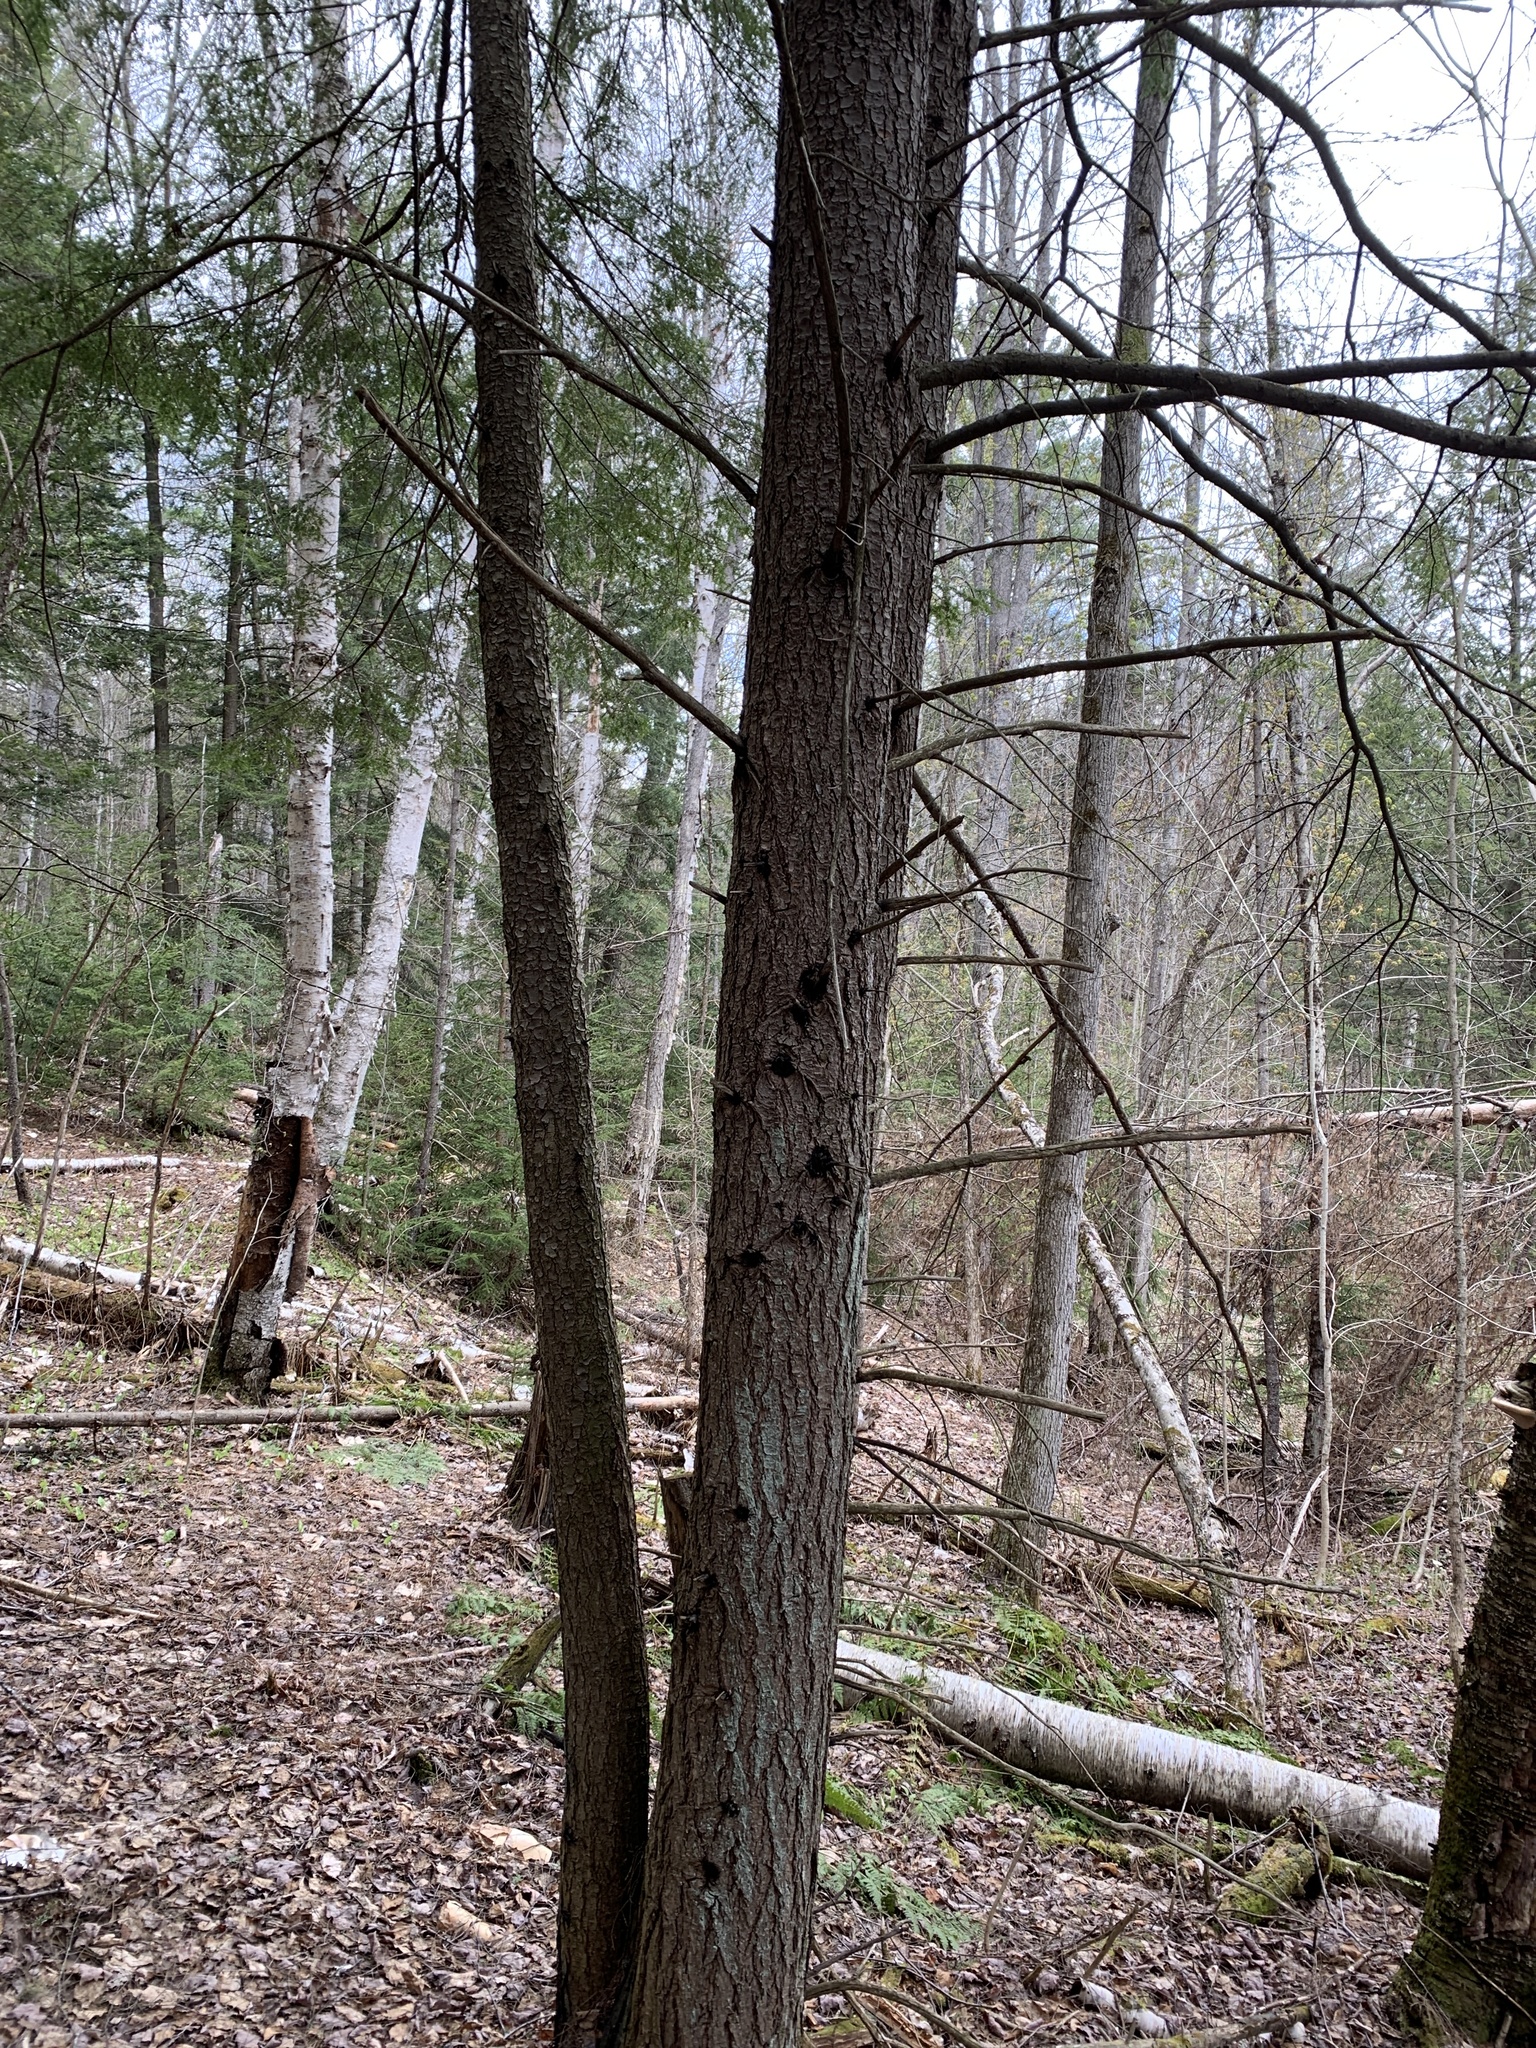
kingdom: Plantae
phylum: Tracheophyta
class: Pinopsida
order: Pinales
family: Pinaceae
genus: Tsuga
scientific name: Tsuga canadensis
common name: Eastern hemlock
